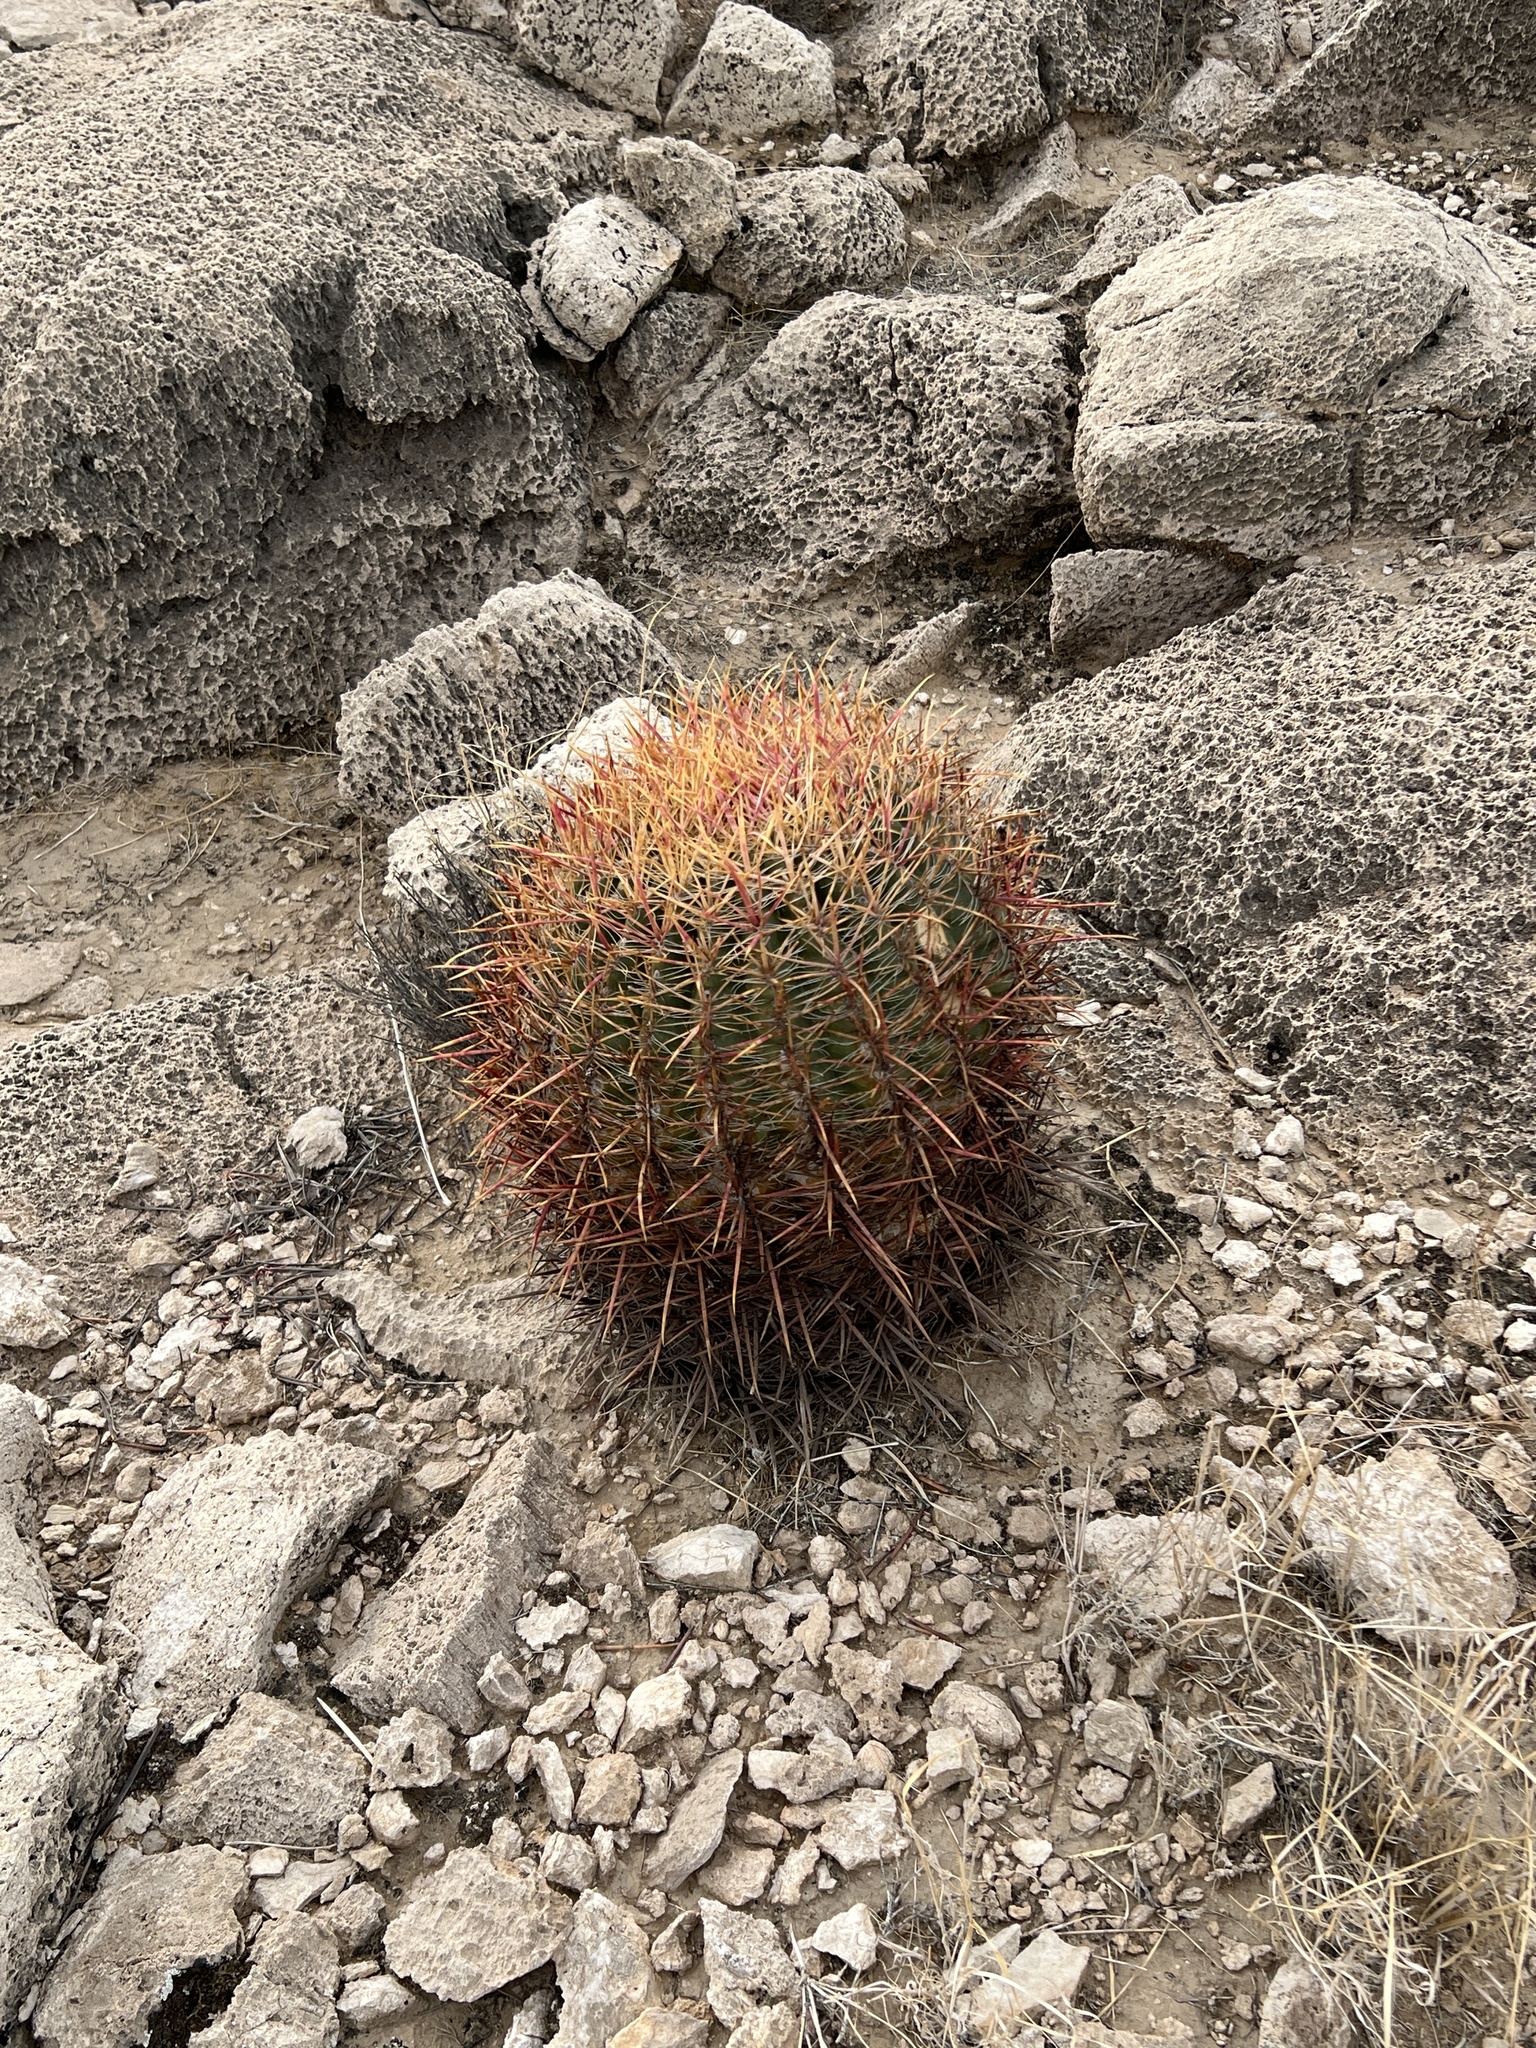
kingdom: Plantae
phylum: Tracheophyta
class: Magnoliopsida
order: Caryophyllales
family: Cactaceae
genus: Ferocactus
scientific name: Ferocactus cylindraceus
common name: California barrel cactus
